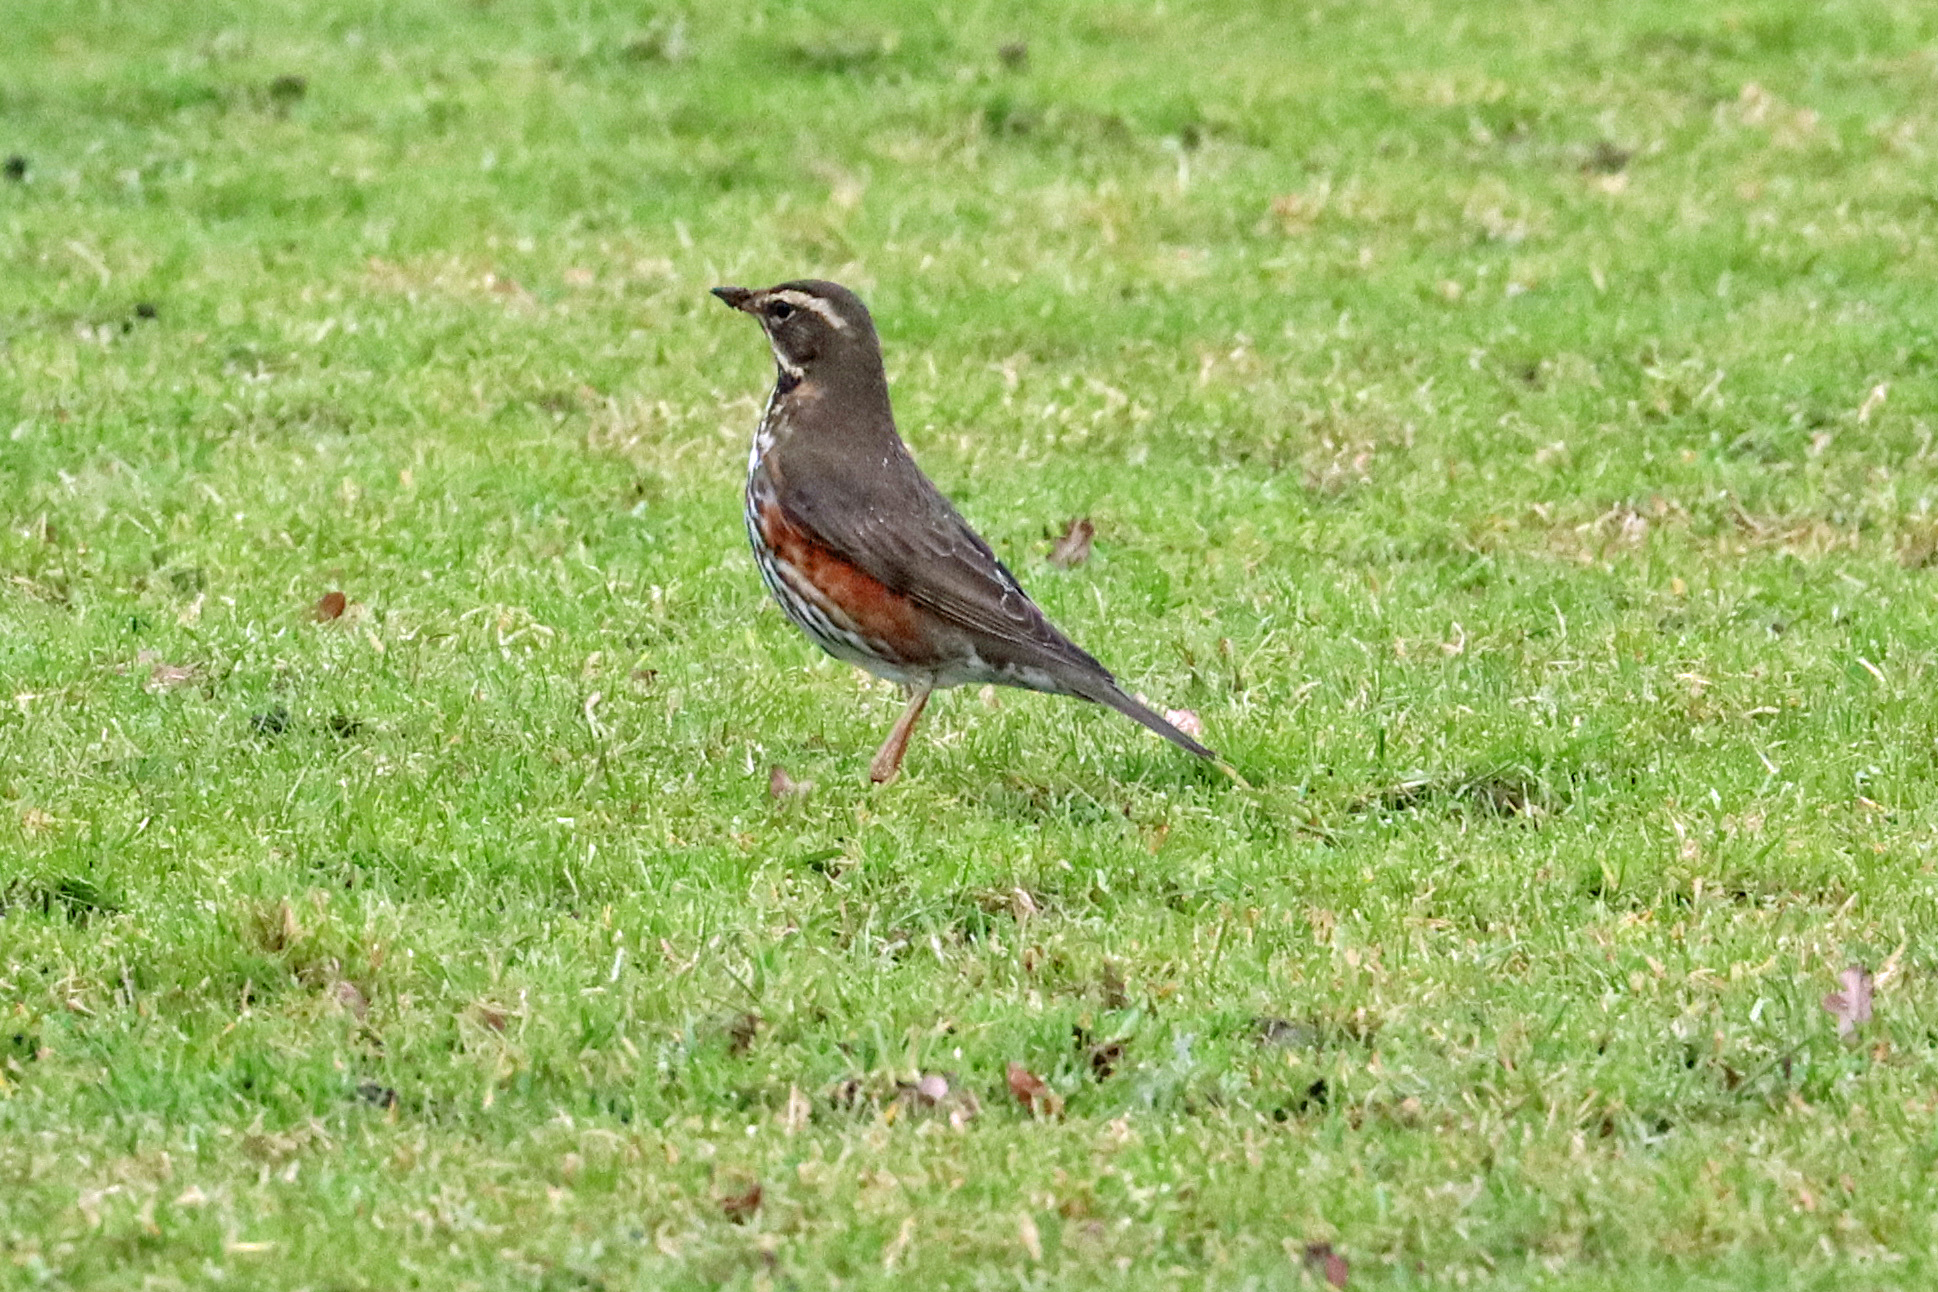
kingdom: Animalia
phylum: Chordata
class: Aves
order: Passeriformes
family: Turdidae
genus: Turdus
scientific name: Turdus iliacus
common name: Redwing
